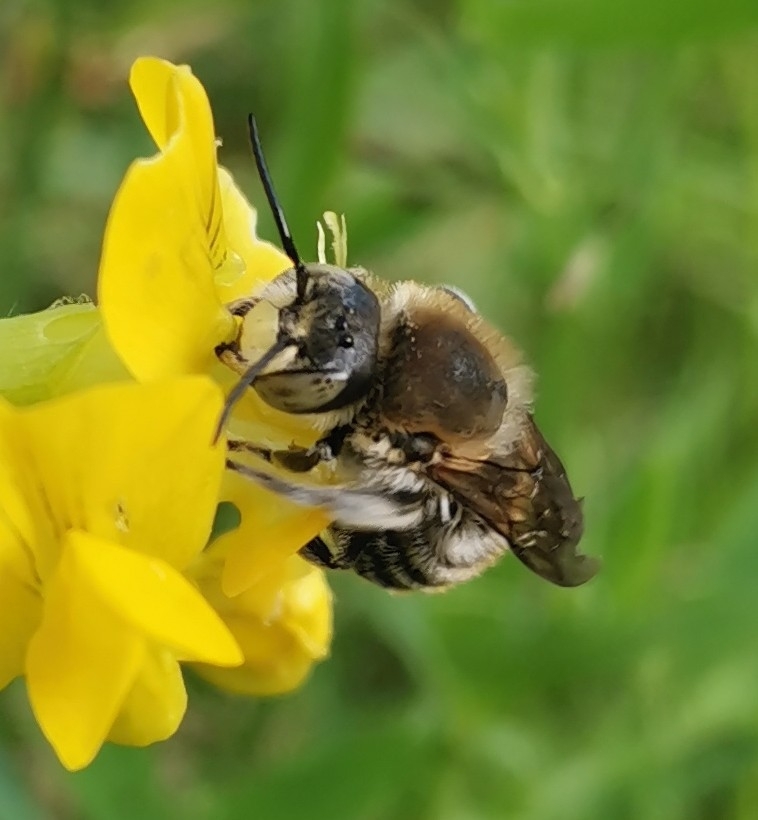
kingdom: Animalia
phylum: Arthropoda
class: Insecta
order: Hymenoptera
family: Megachilidae
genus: Trachusa
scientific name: Trachusa byssina
